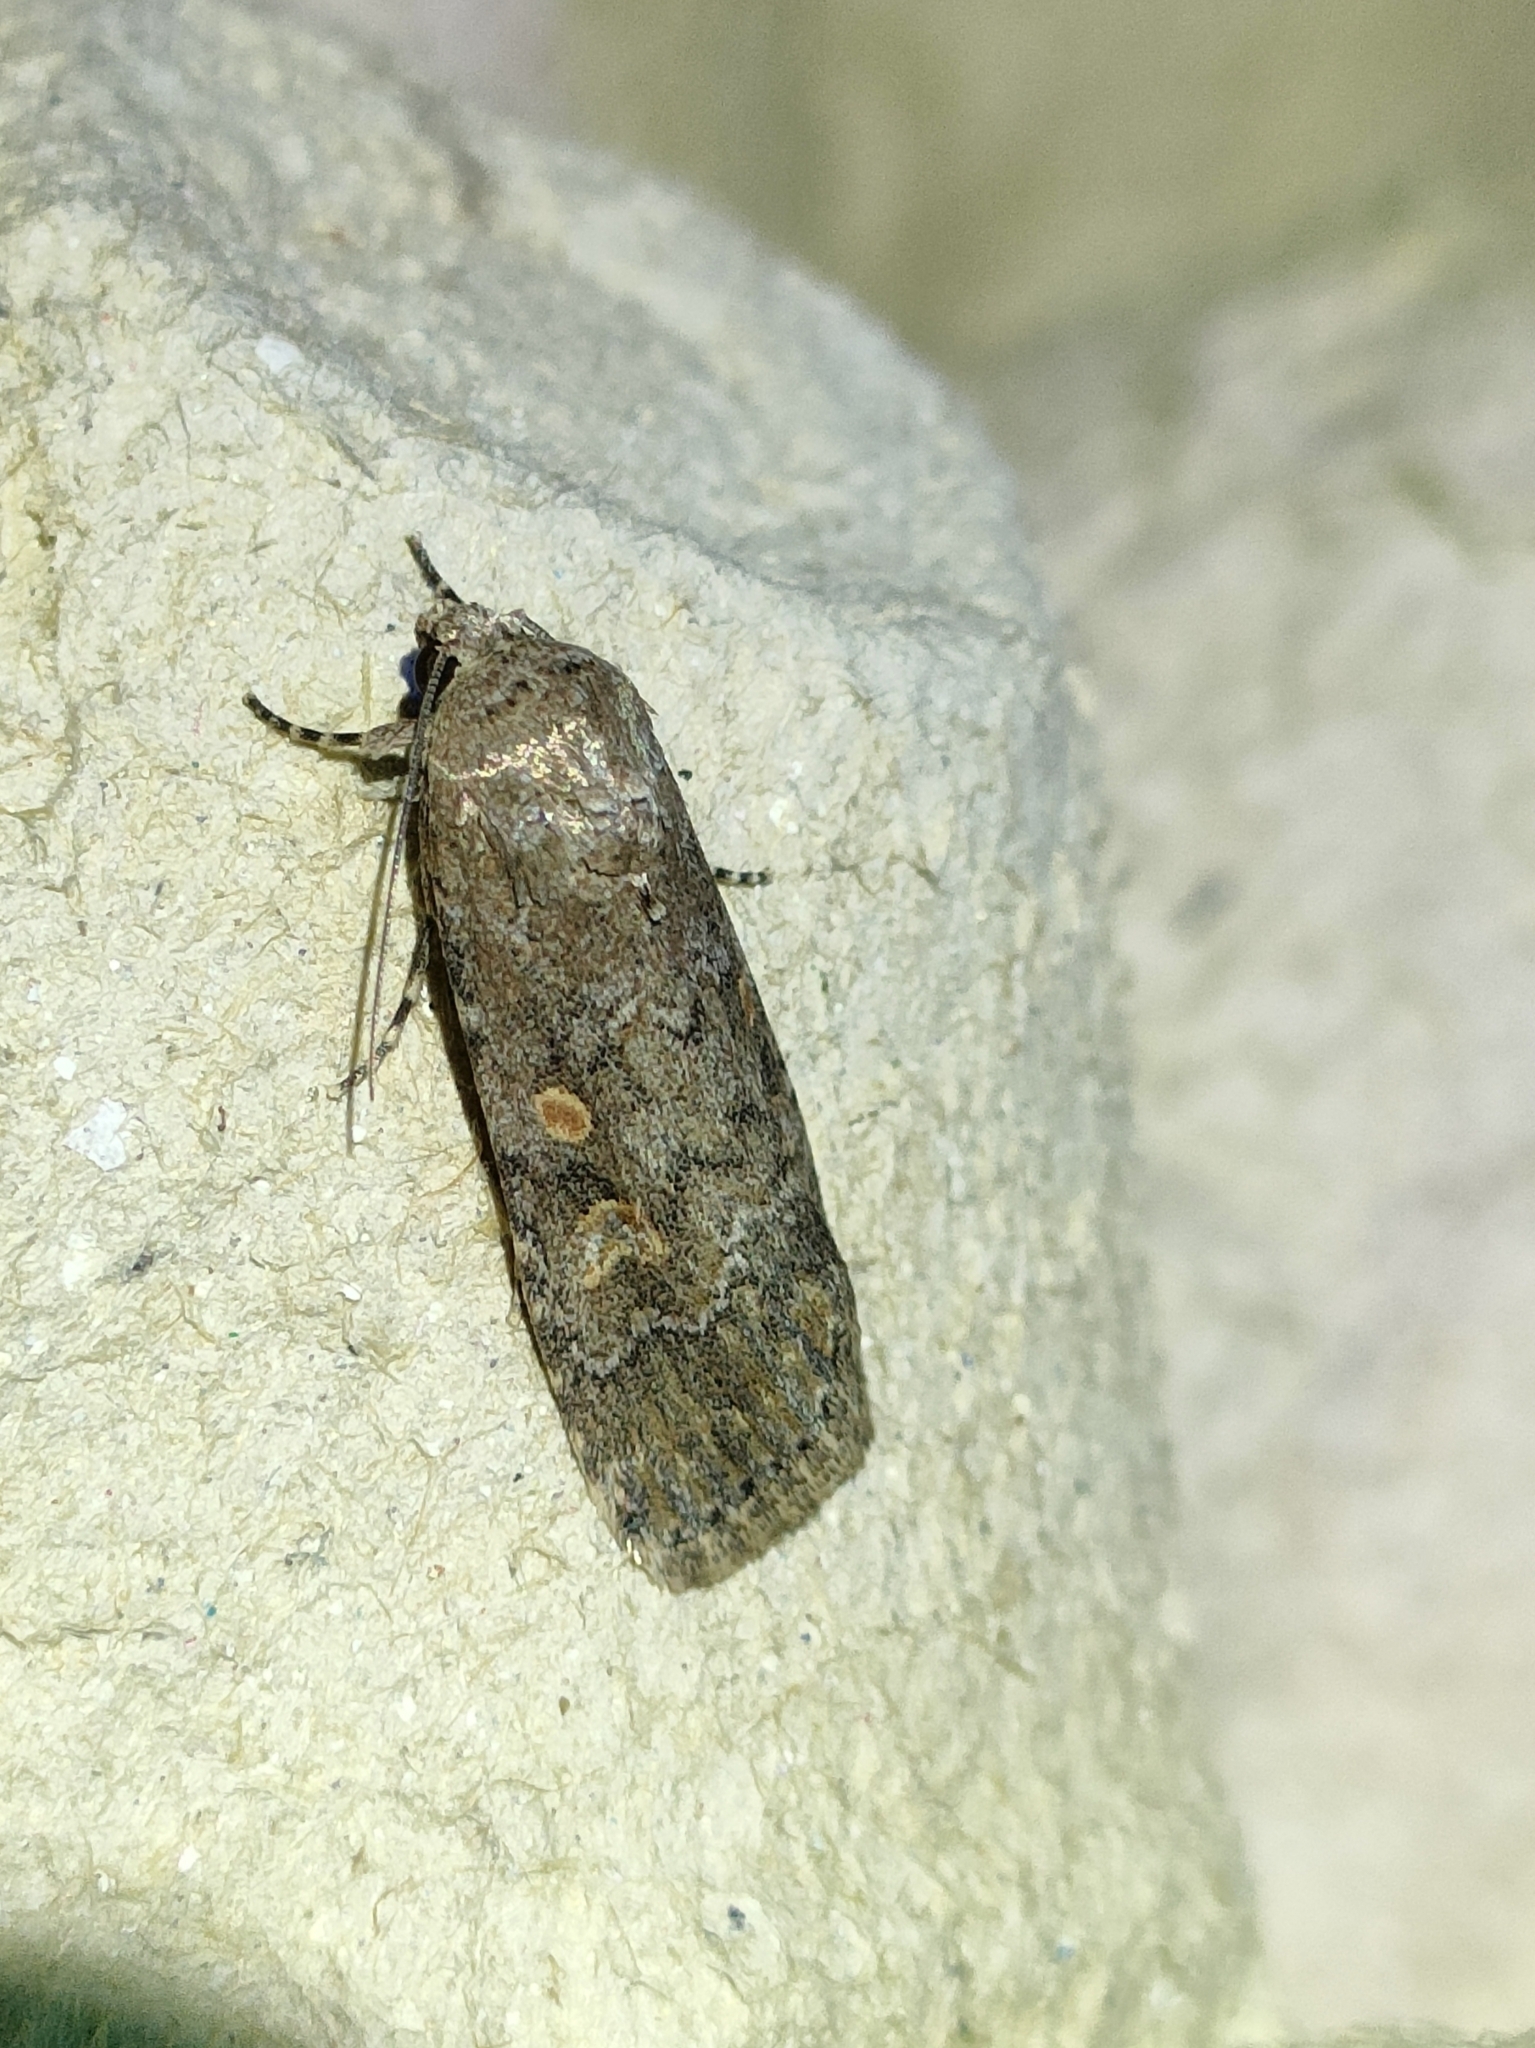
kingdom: Animalia
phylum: Arthropoda
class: Insecta
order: Lepidoptera
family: Noctuidae
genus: Spodoptera
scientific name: Spodoptera exigua
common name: Beet armyworm
